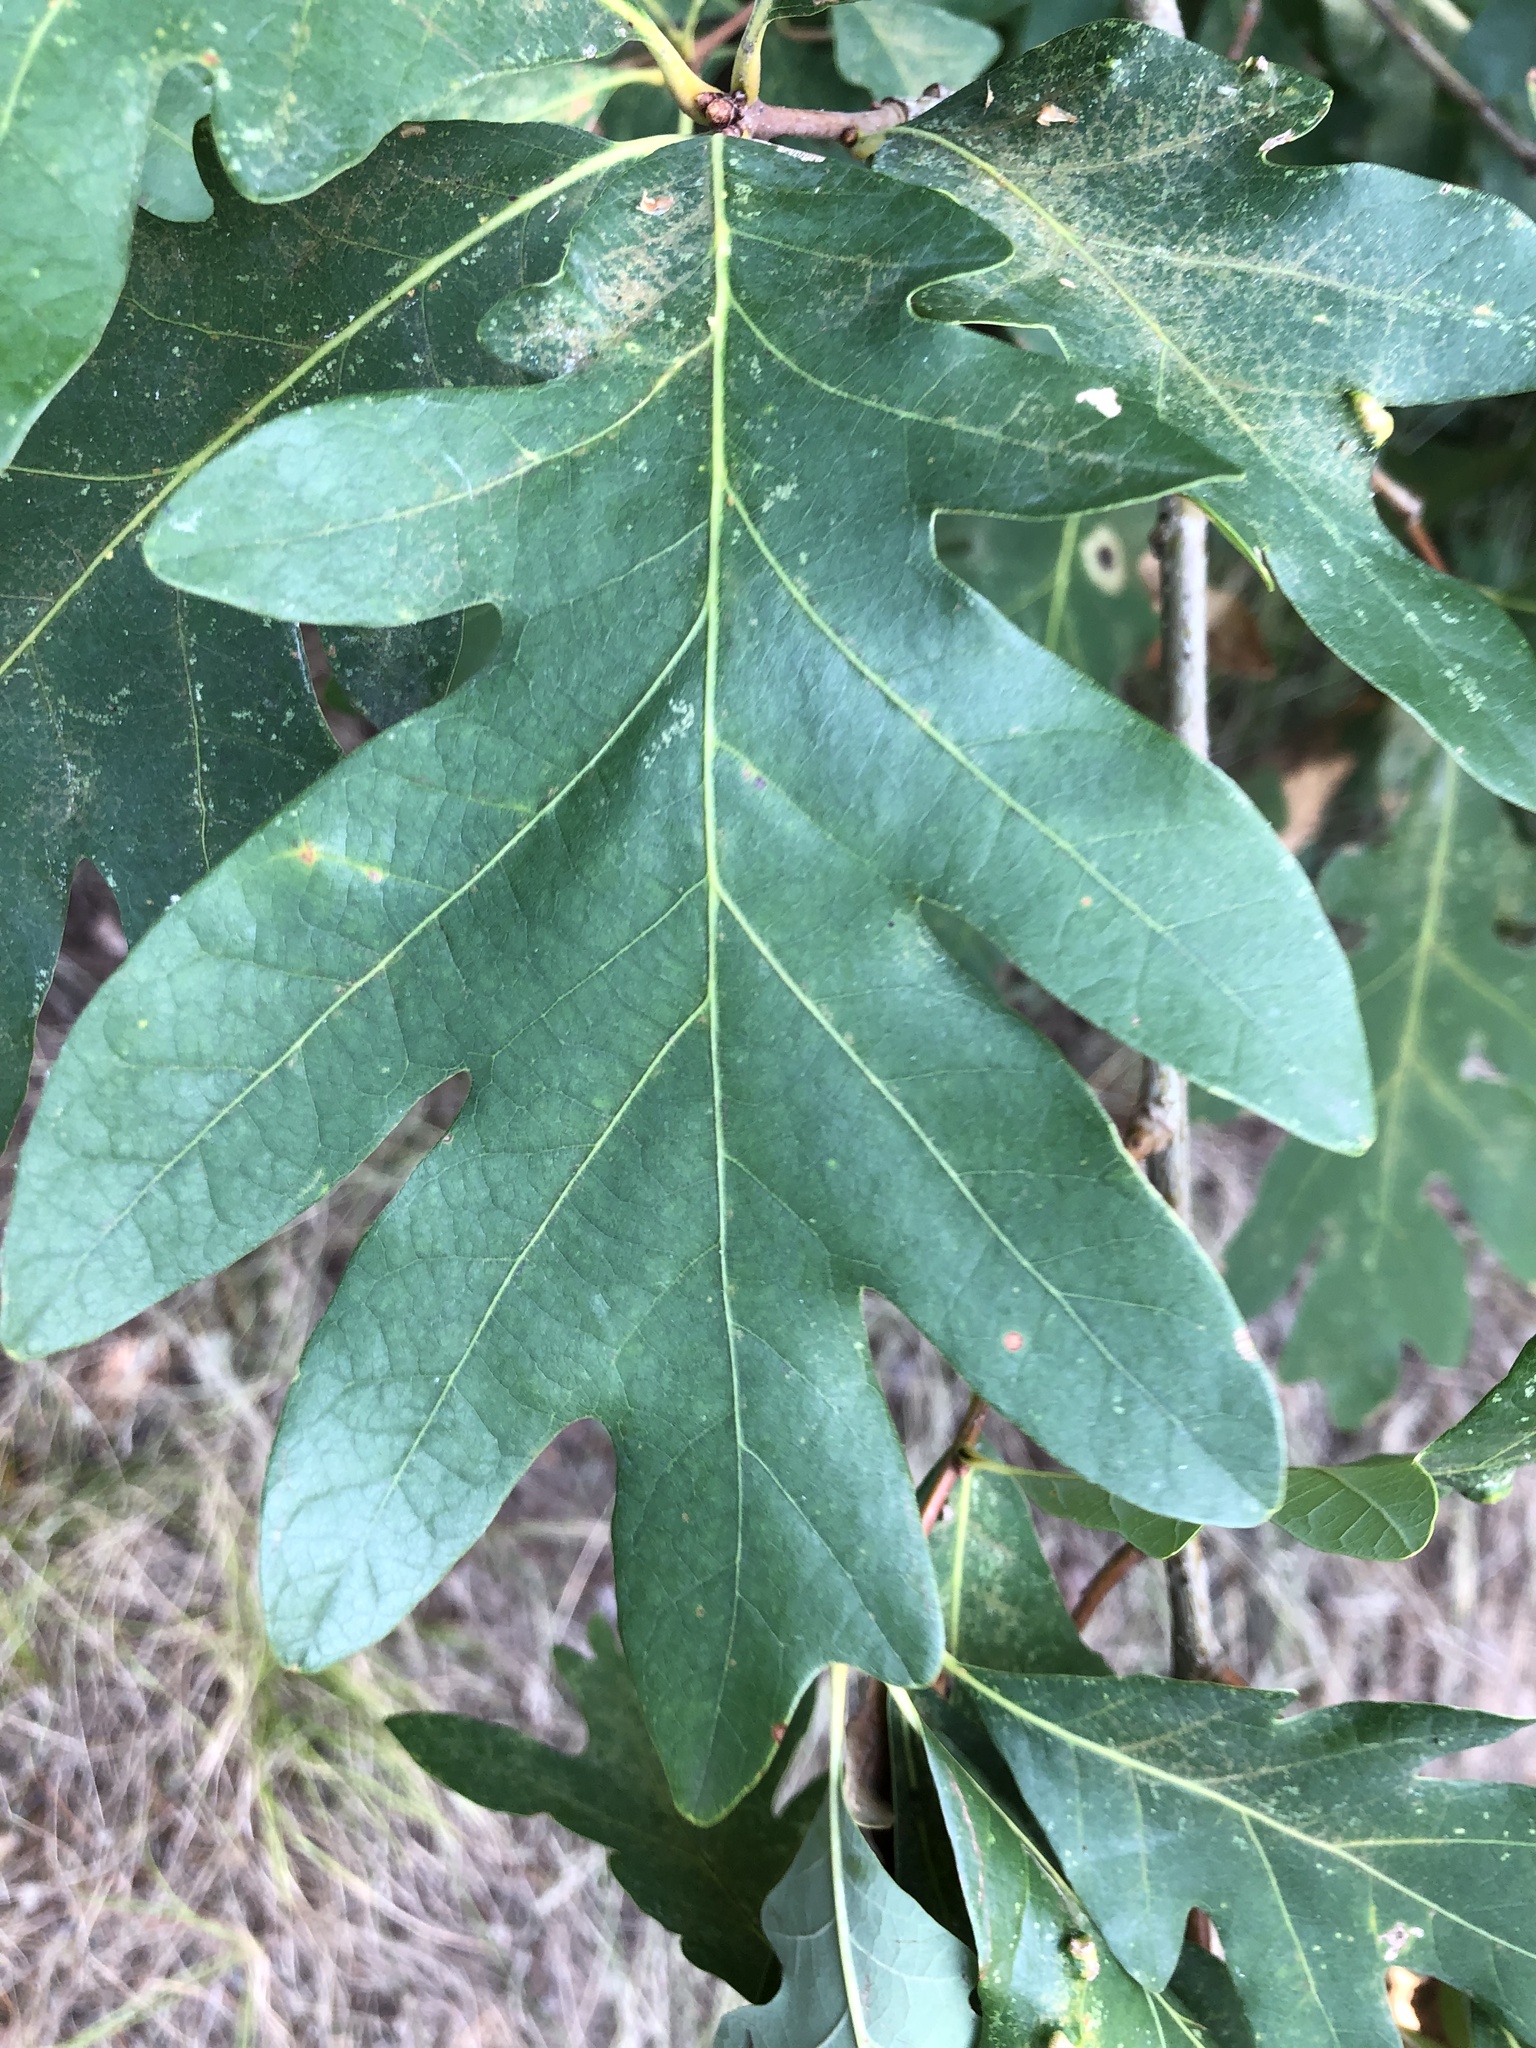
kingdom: Plantae
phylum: Tracheophyta
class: Magnoliopsida
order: Fagales
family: Fagaceae
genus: Quercus
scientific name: Quercus alba
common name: White oak
